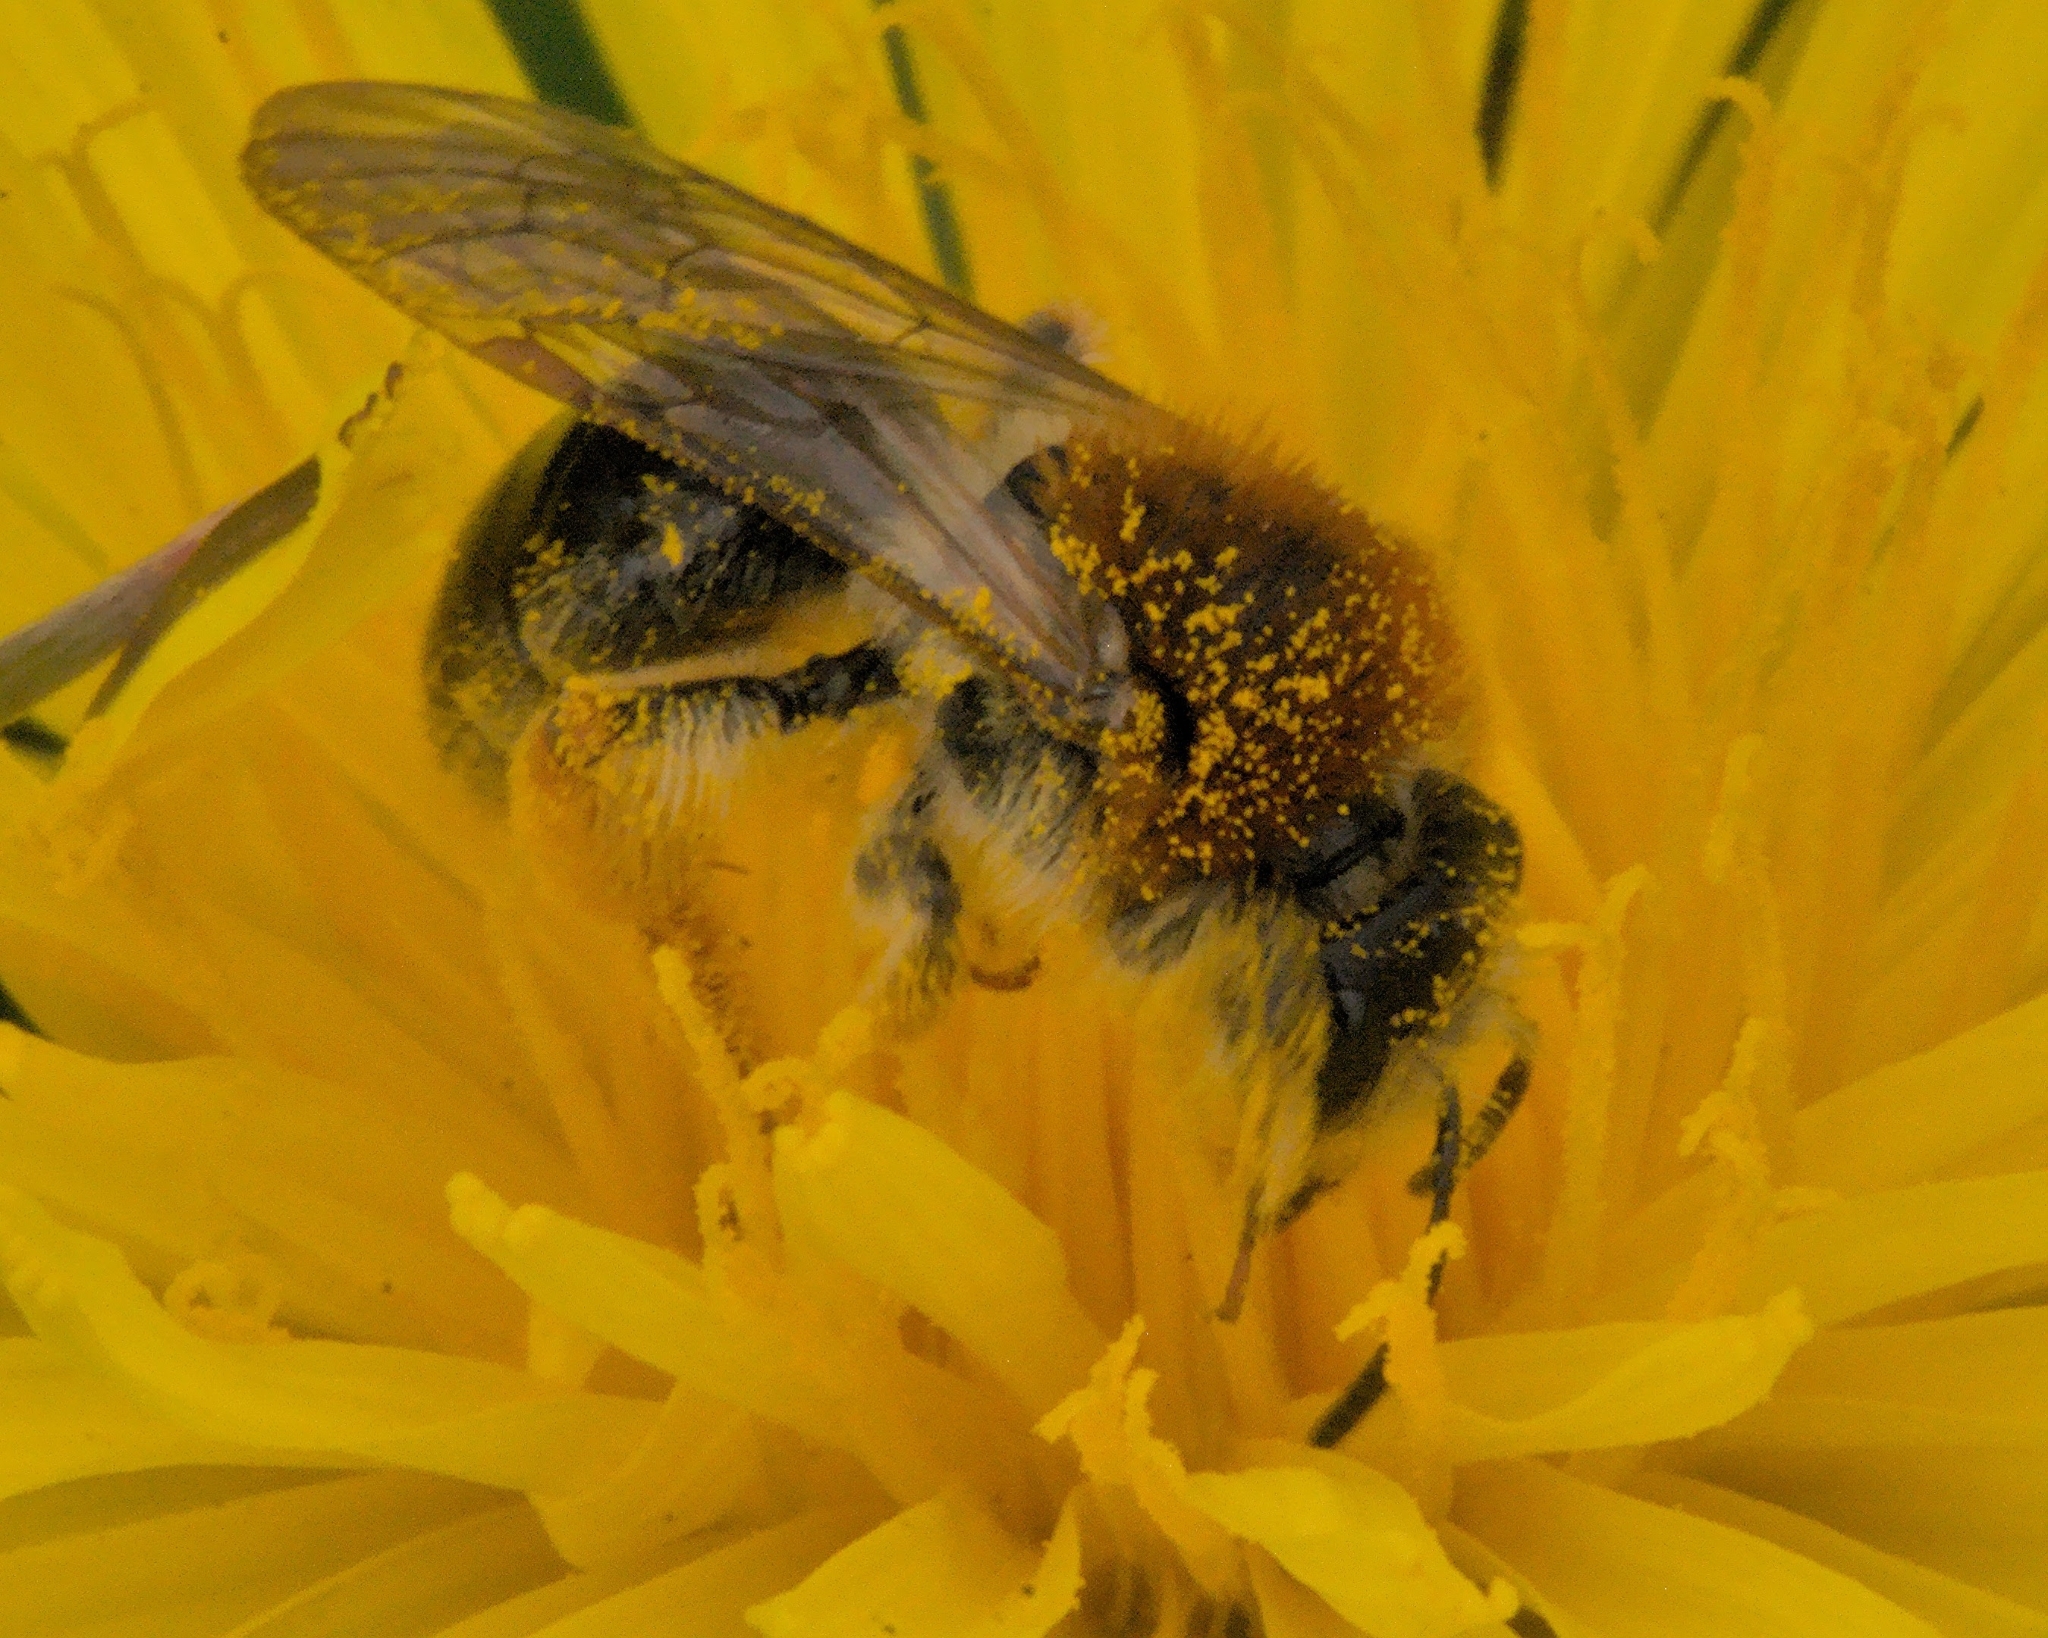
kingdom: Animalia
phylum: Arthropoda
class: Insecta
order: Hymenoptera
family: Andrenidae
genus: Andrena
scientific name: Andrena nitida
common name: Grey-patched mining bee
